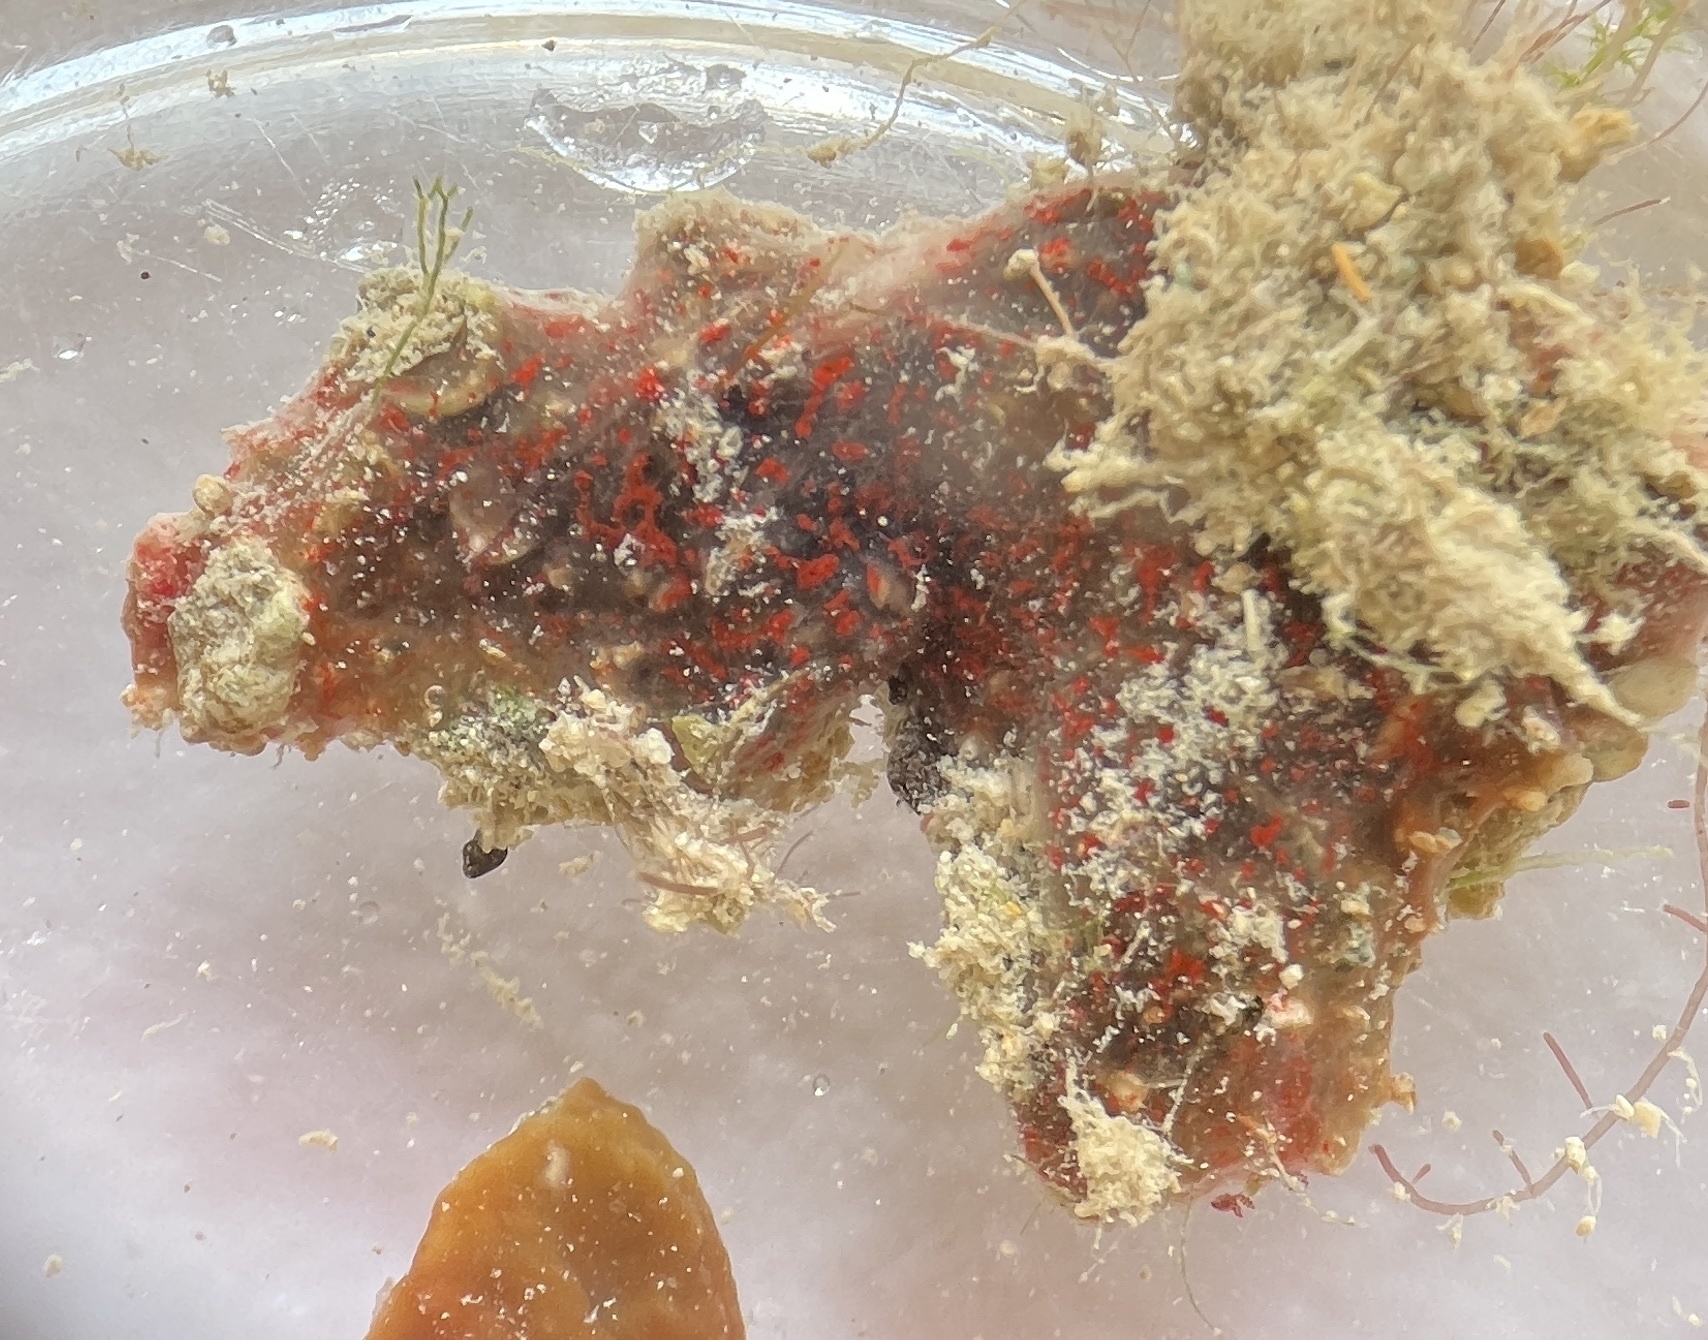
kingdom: Animalia
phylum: Porifera
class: Demospongiae
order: Poecilosclerida
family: Mycalidae
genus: Mycale
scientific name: Mycale microsigmatosa
